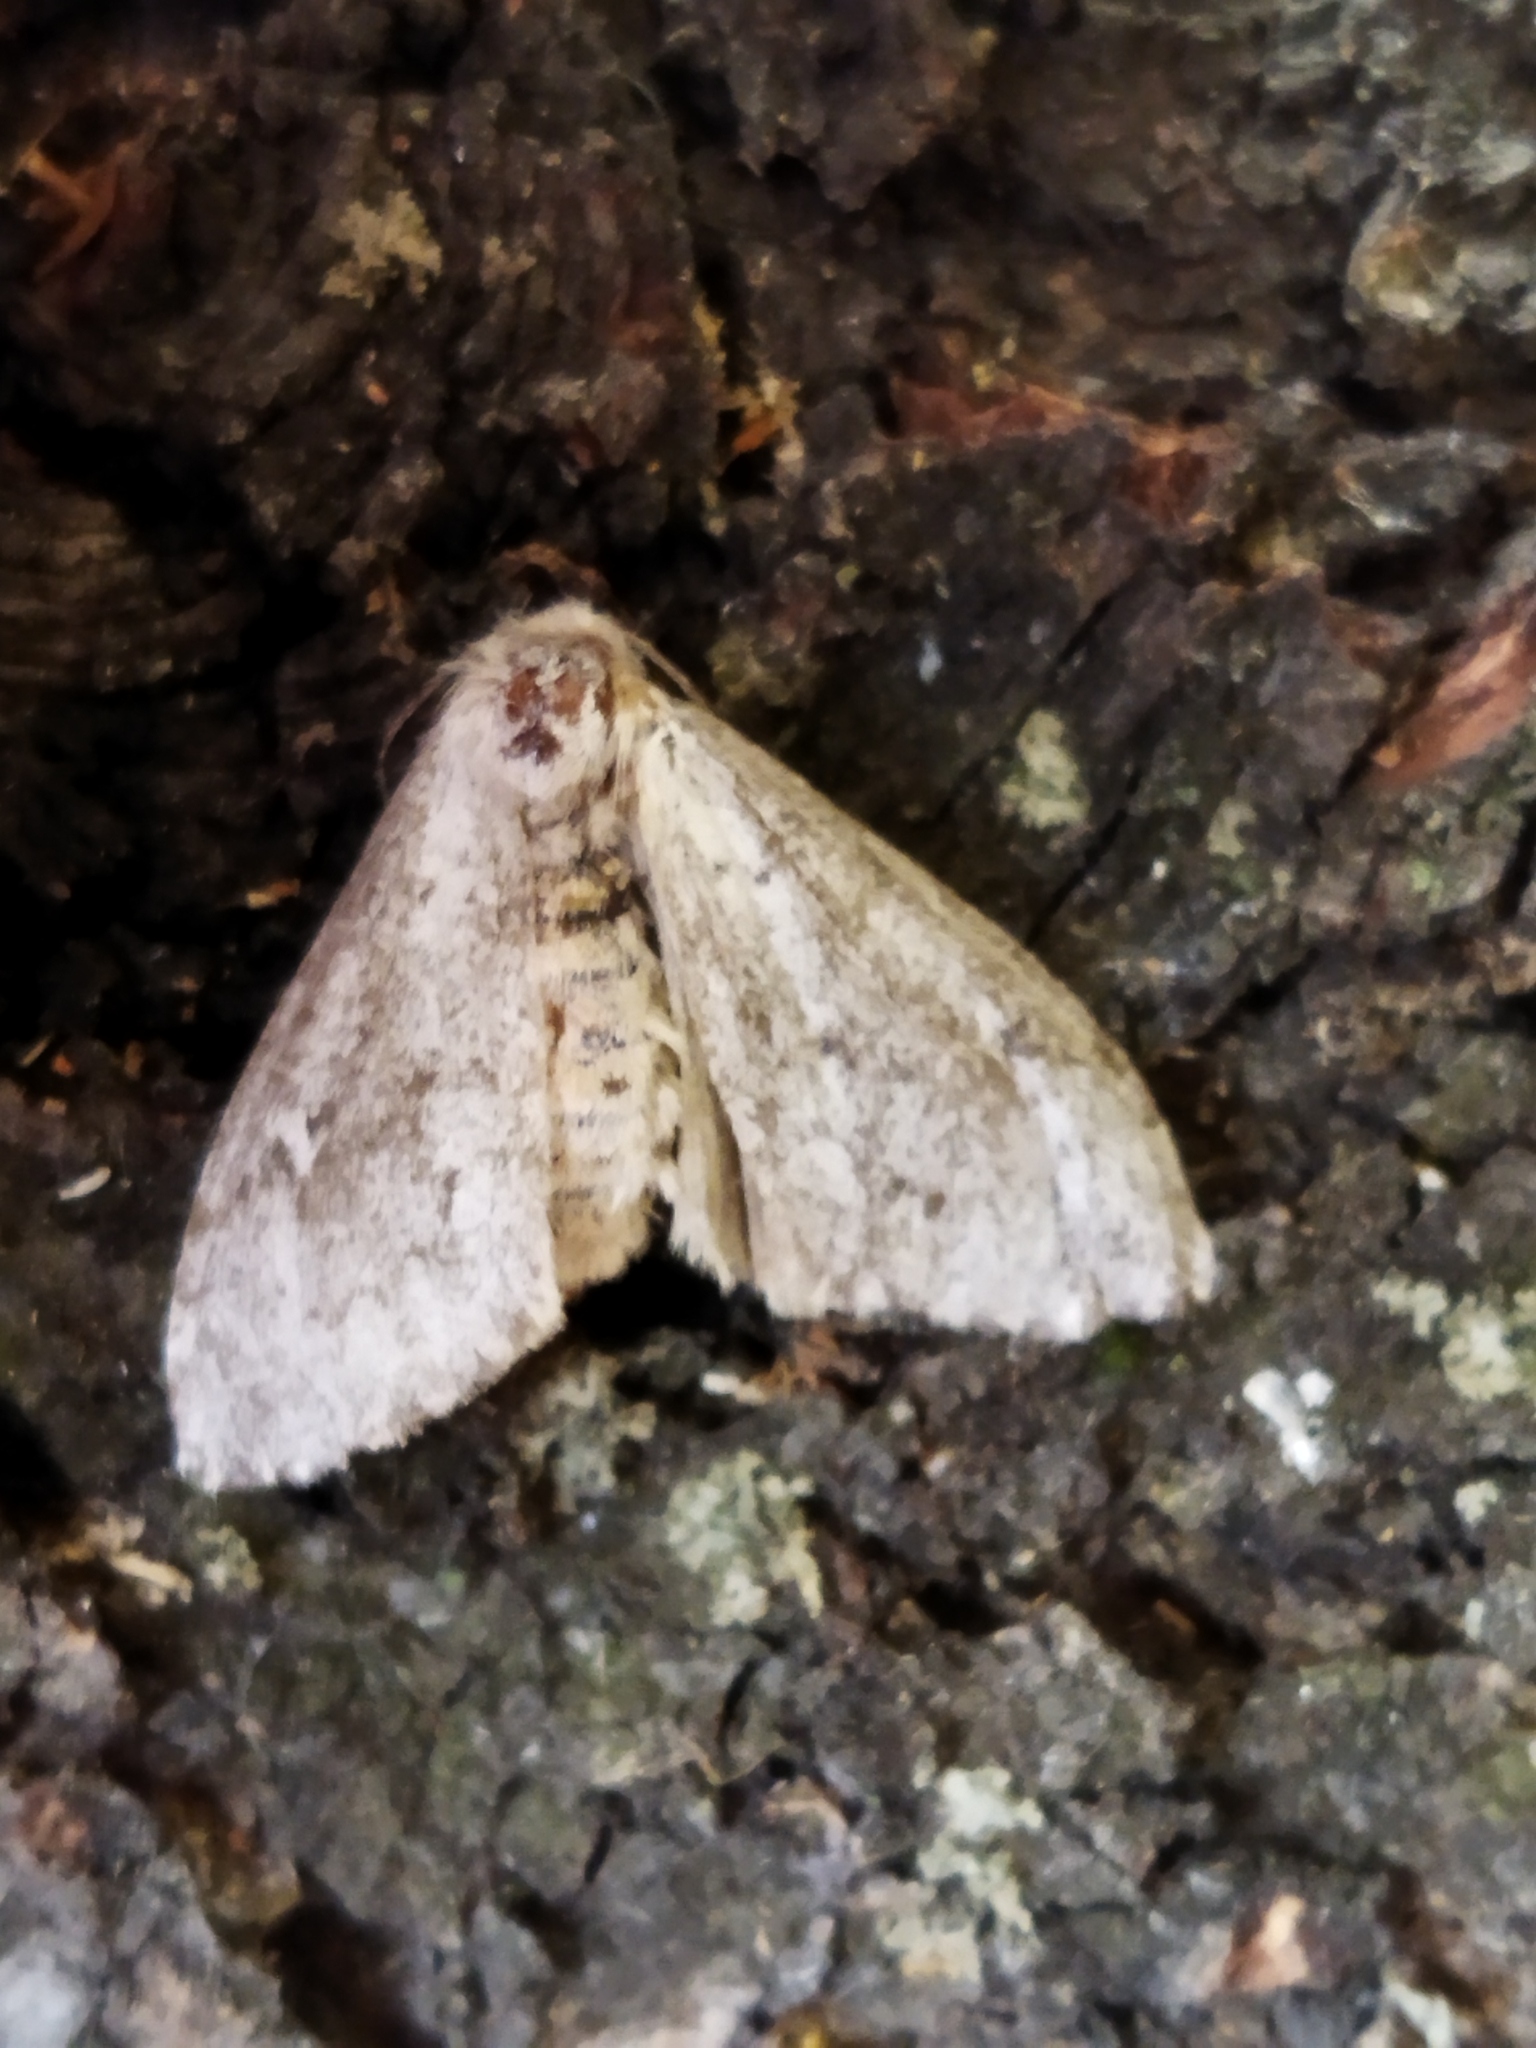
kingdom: Animalia
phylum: Arthropoda
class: Insecta
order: Lepidoptera
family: Erebidae
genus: Ocneria
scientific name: Ocneria
